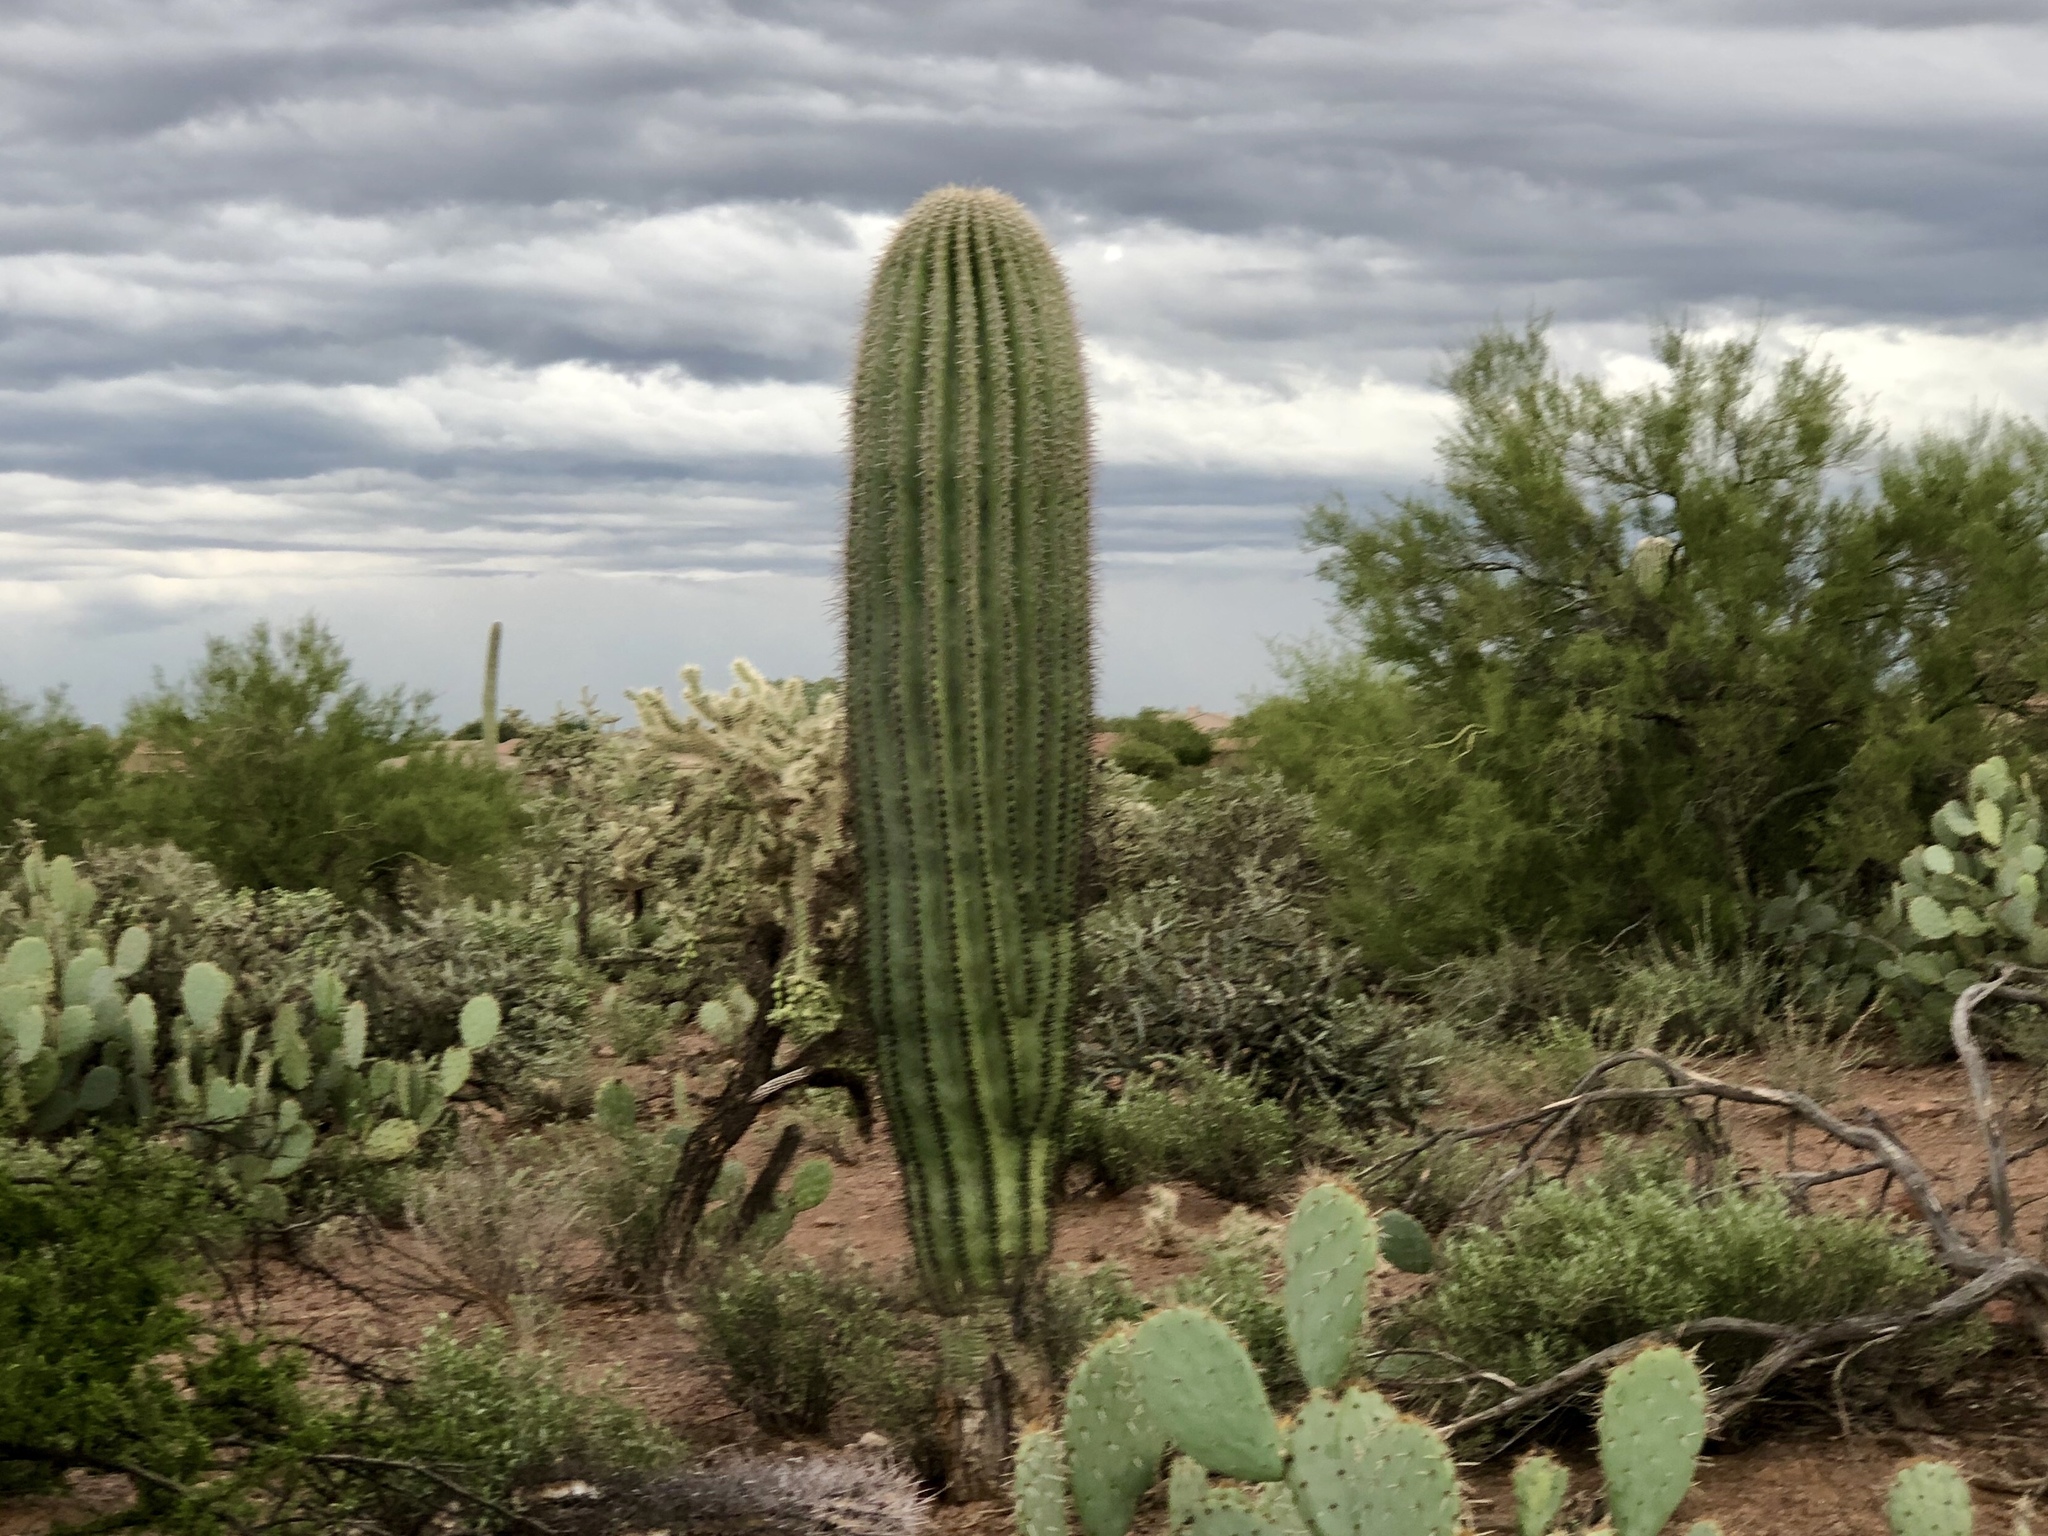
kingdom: Plantae
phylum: Tracheophyta
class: Magnoliopsida
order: Caryophyllales
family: Cactaceae
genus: Carnegiea
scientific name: Carnegiea gigantea
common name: Saguaro
